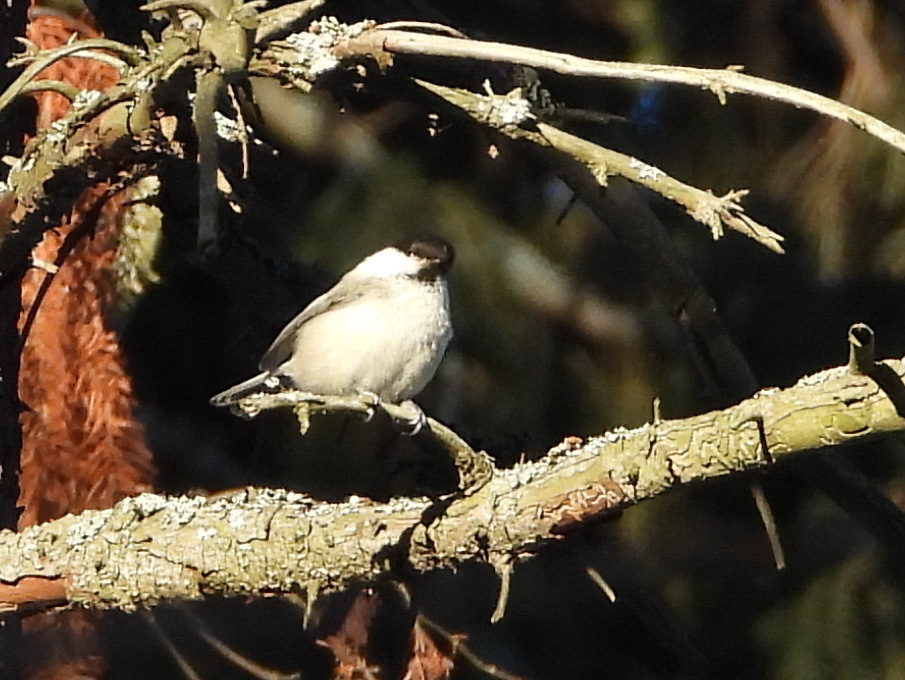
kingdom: Animalia
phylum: Chordata
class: Aves
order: Passeriformes
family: Paridae
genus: Poecile
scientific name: Poecile montanus
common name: Willow tit
